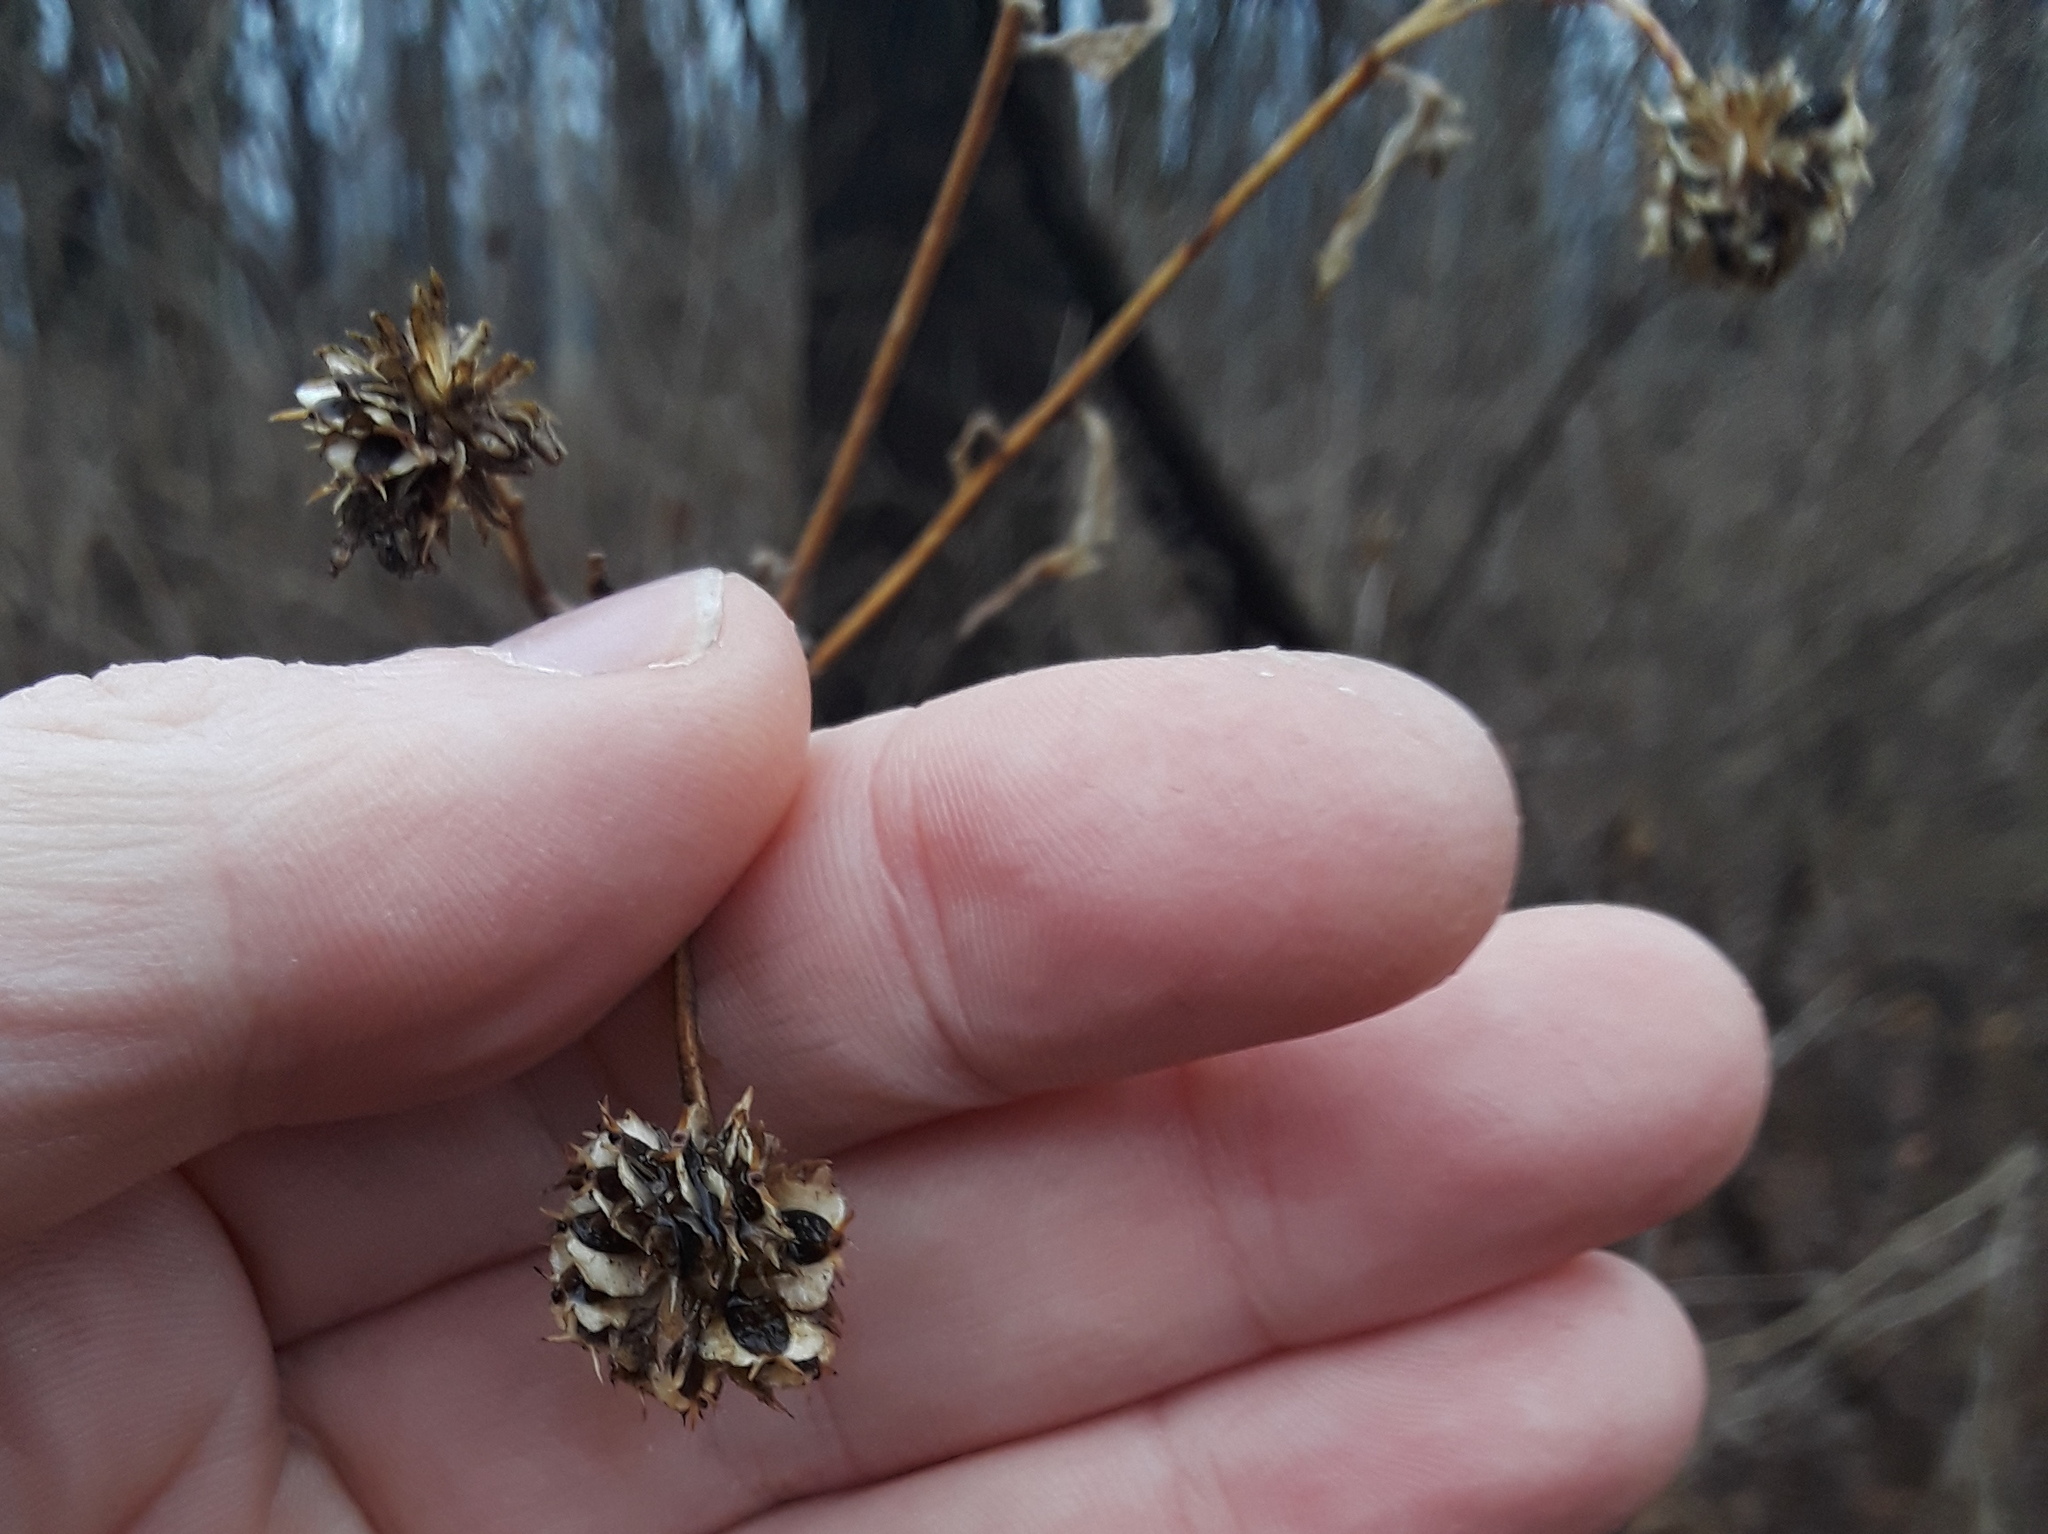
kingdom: Plantae
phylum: Tracheophyta
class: Magnoliopsida
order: Asterales
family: Asteraceae
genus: Verbesina
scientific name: Verbesina alternifolia
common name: Wingstem
